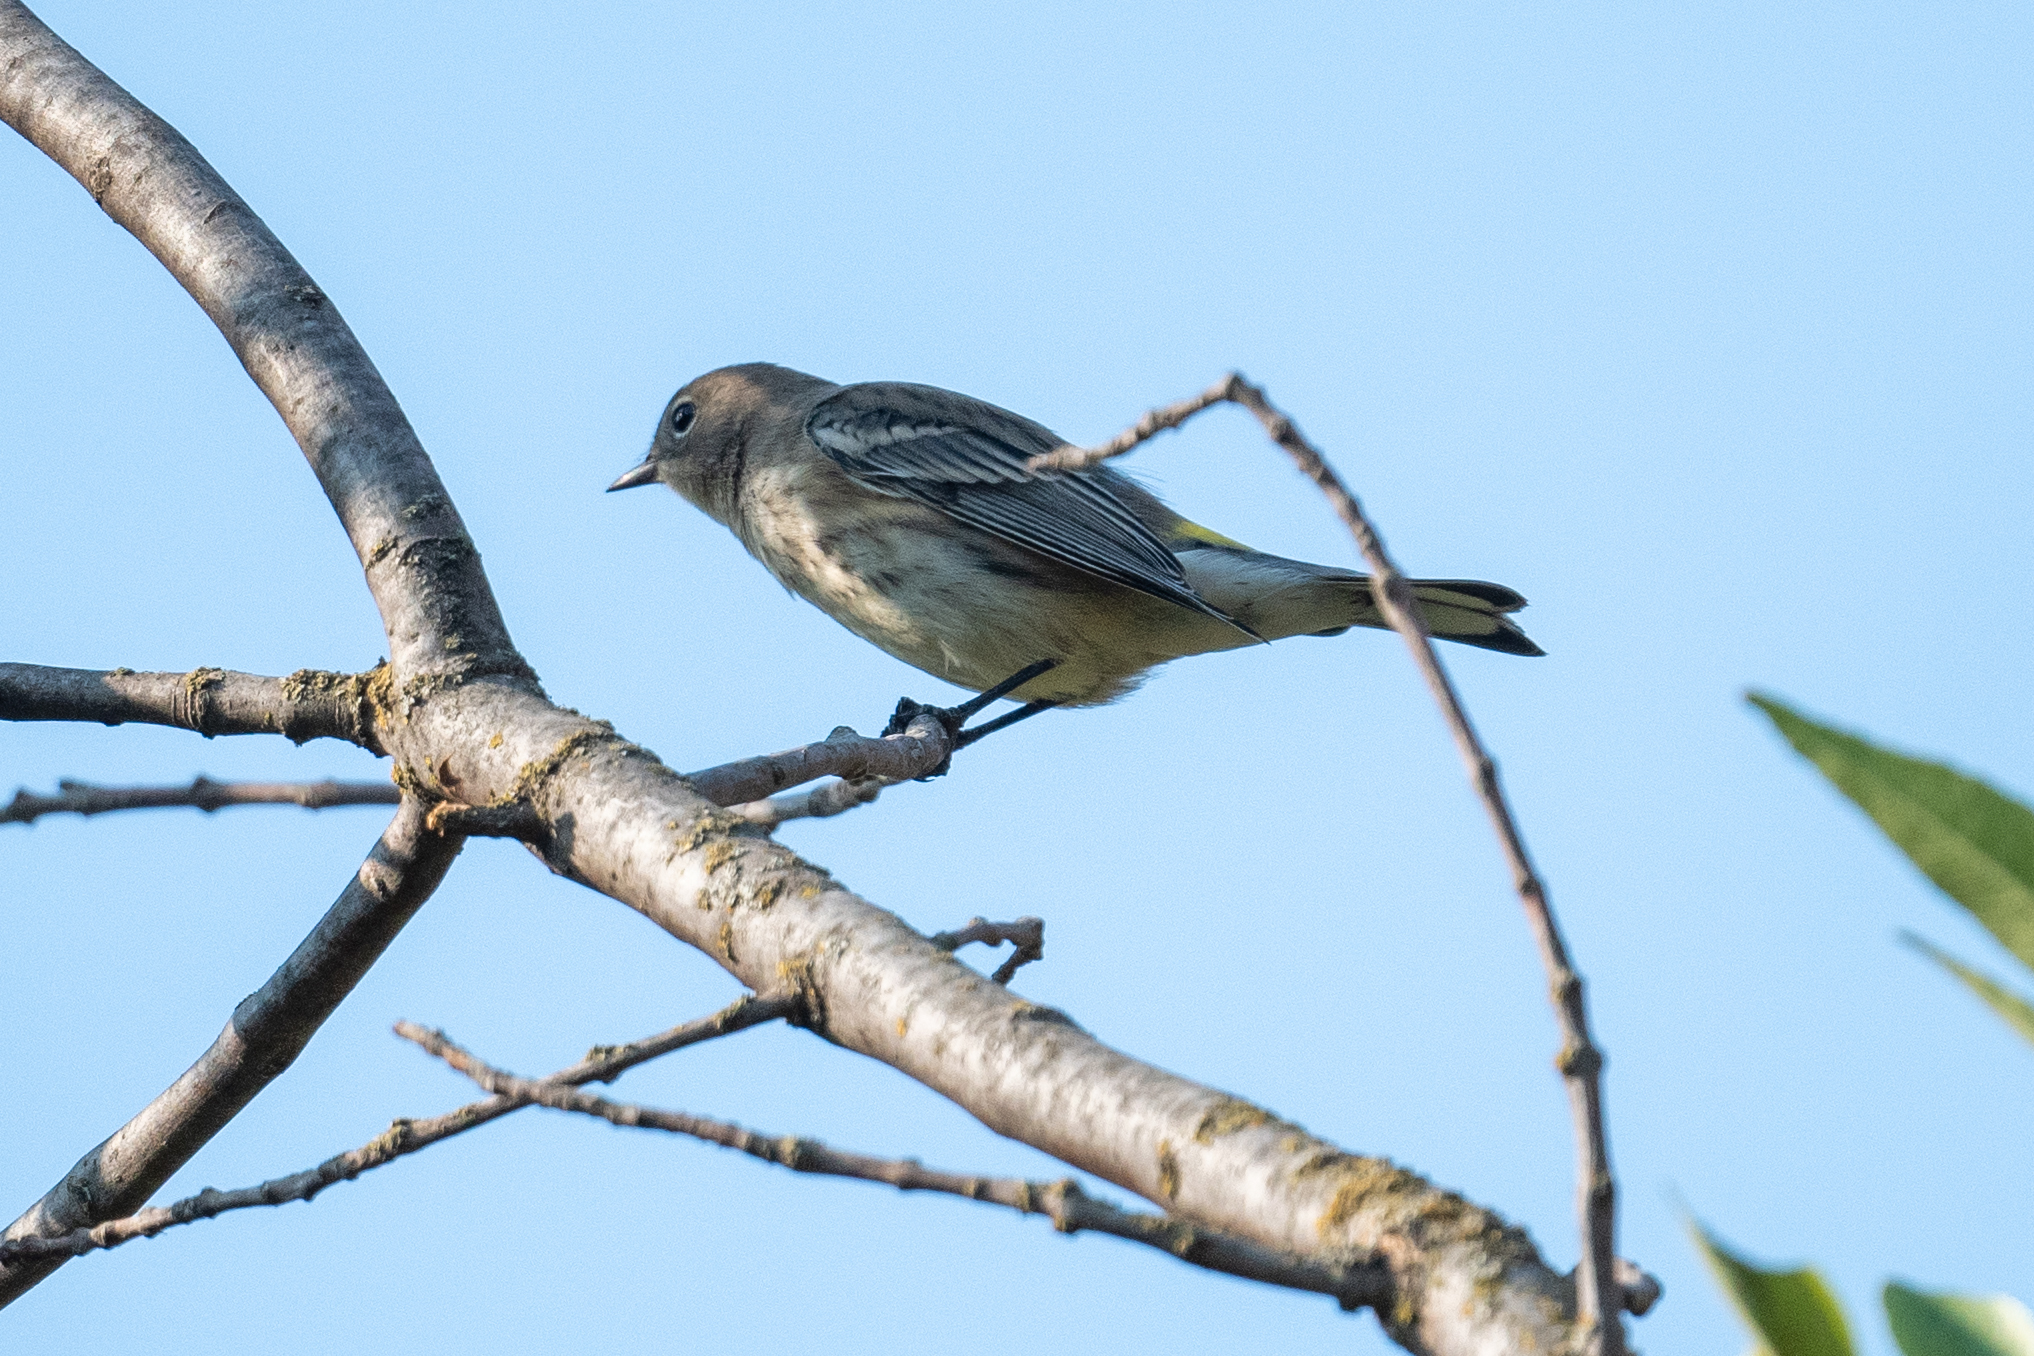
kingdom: Animalia
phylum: Chordata
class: Aves
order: Passeriformes
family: Parulidae
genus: Setophaga
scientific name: Setophaga coronata
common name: Myrtle warbler
